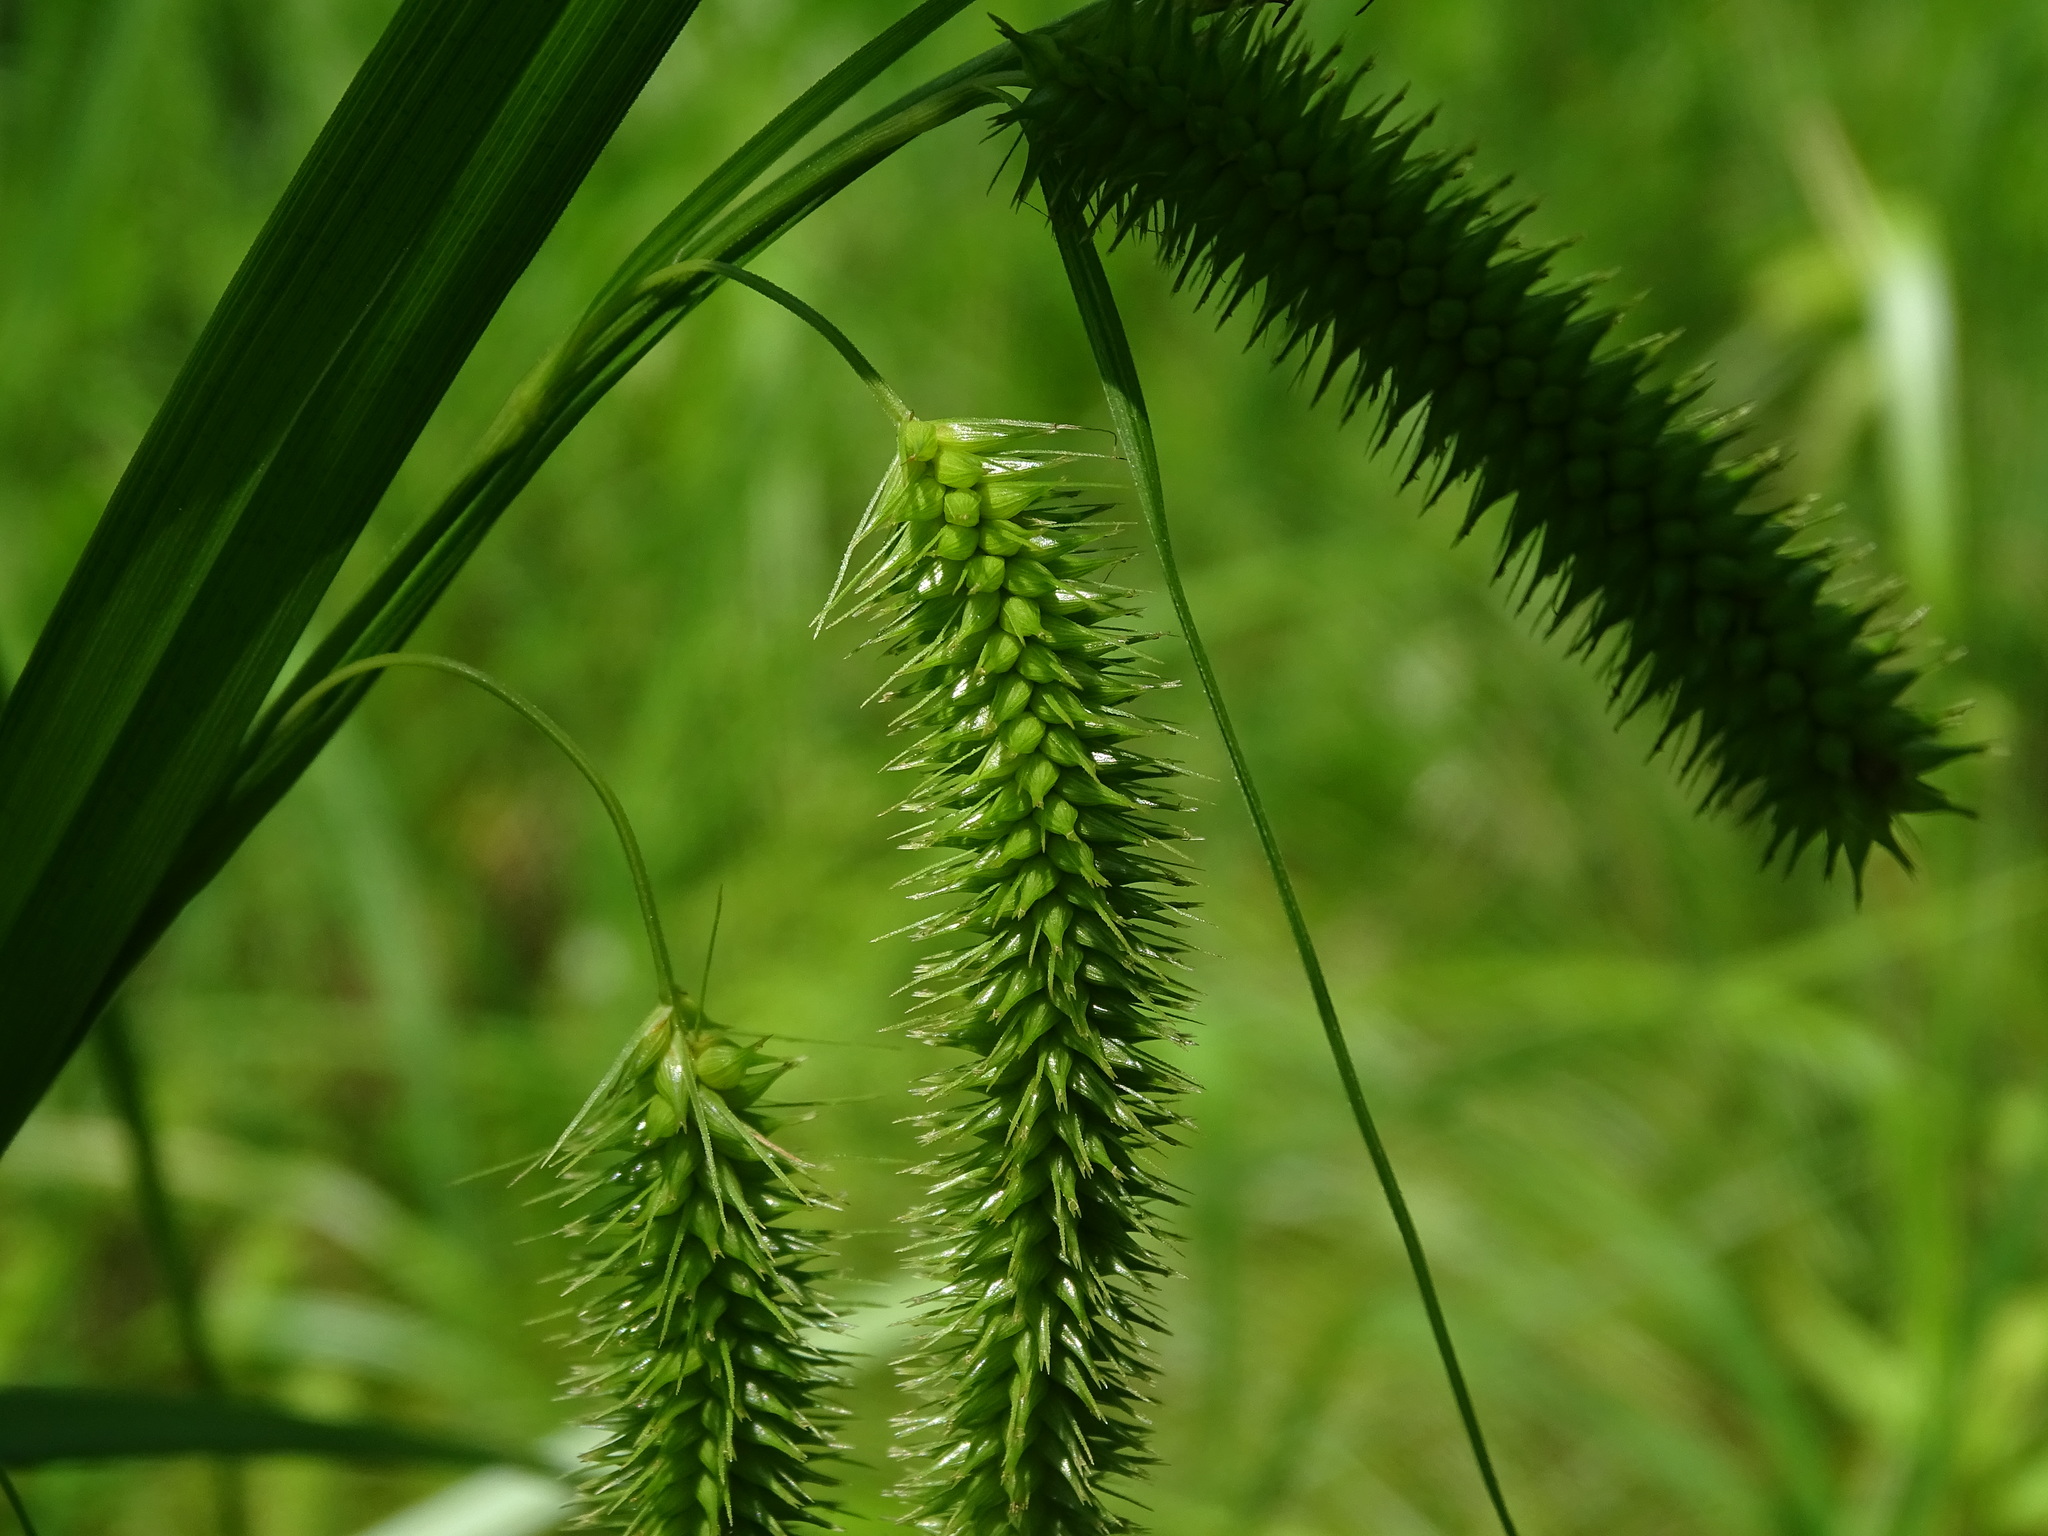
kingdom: Plantae
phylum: Tracheophyta
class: Liliopsida
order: Poales
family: Cyperaceae
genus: Carex
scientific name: Carex pseudocyperus
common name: Cyperus sedge
